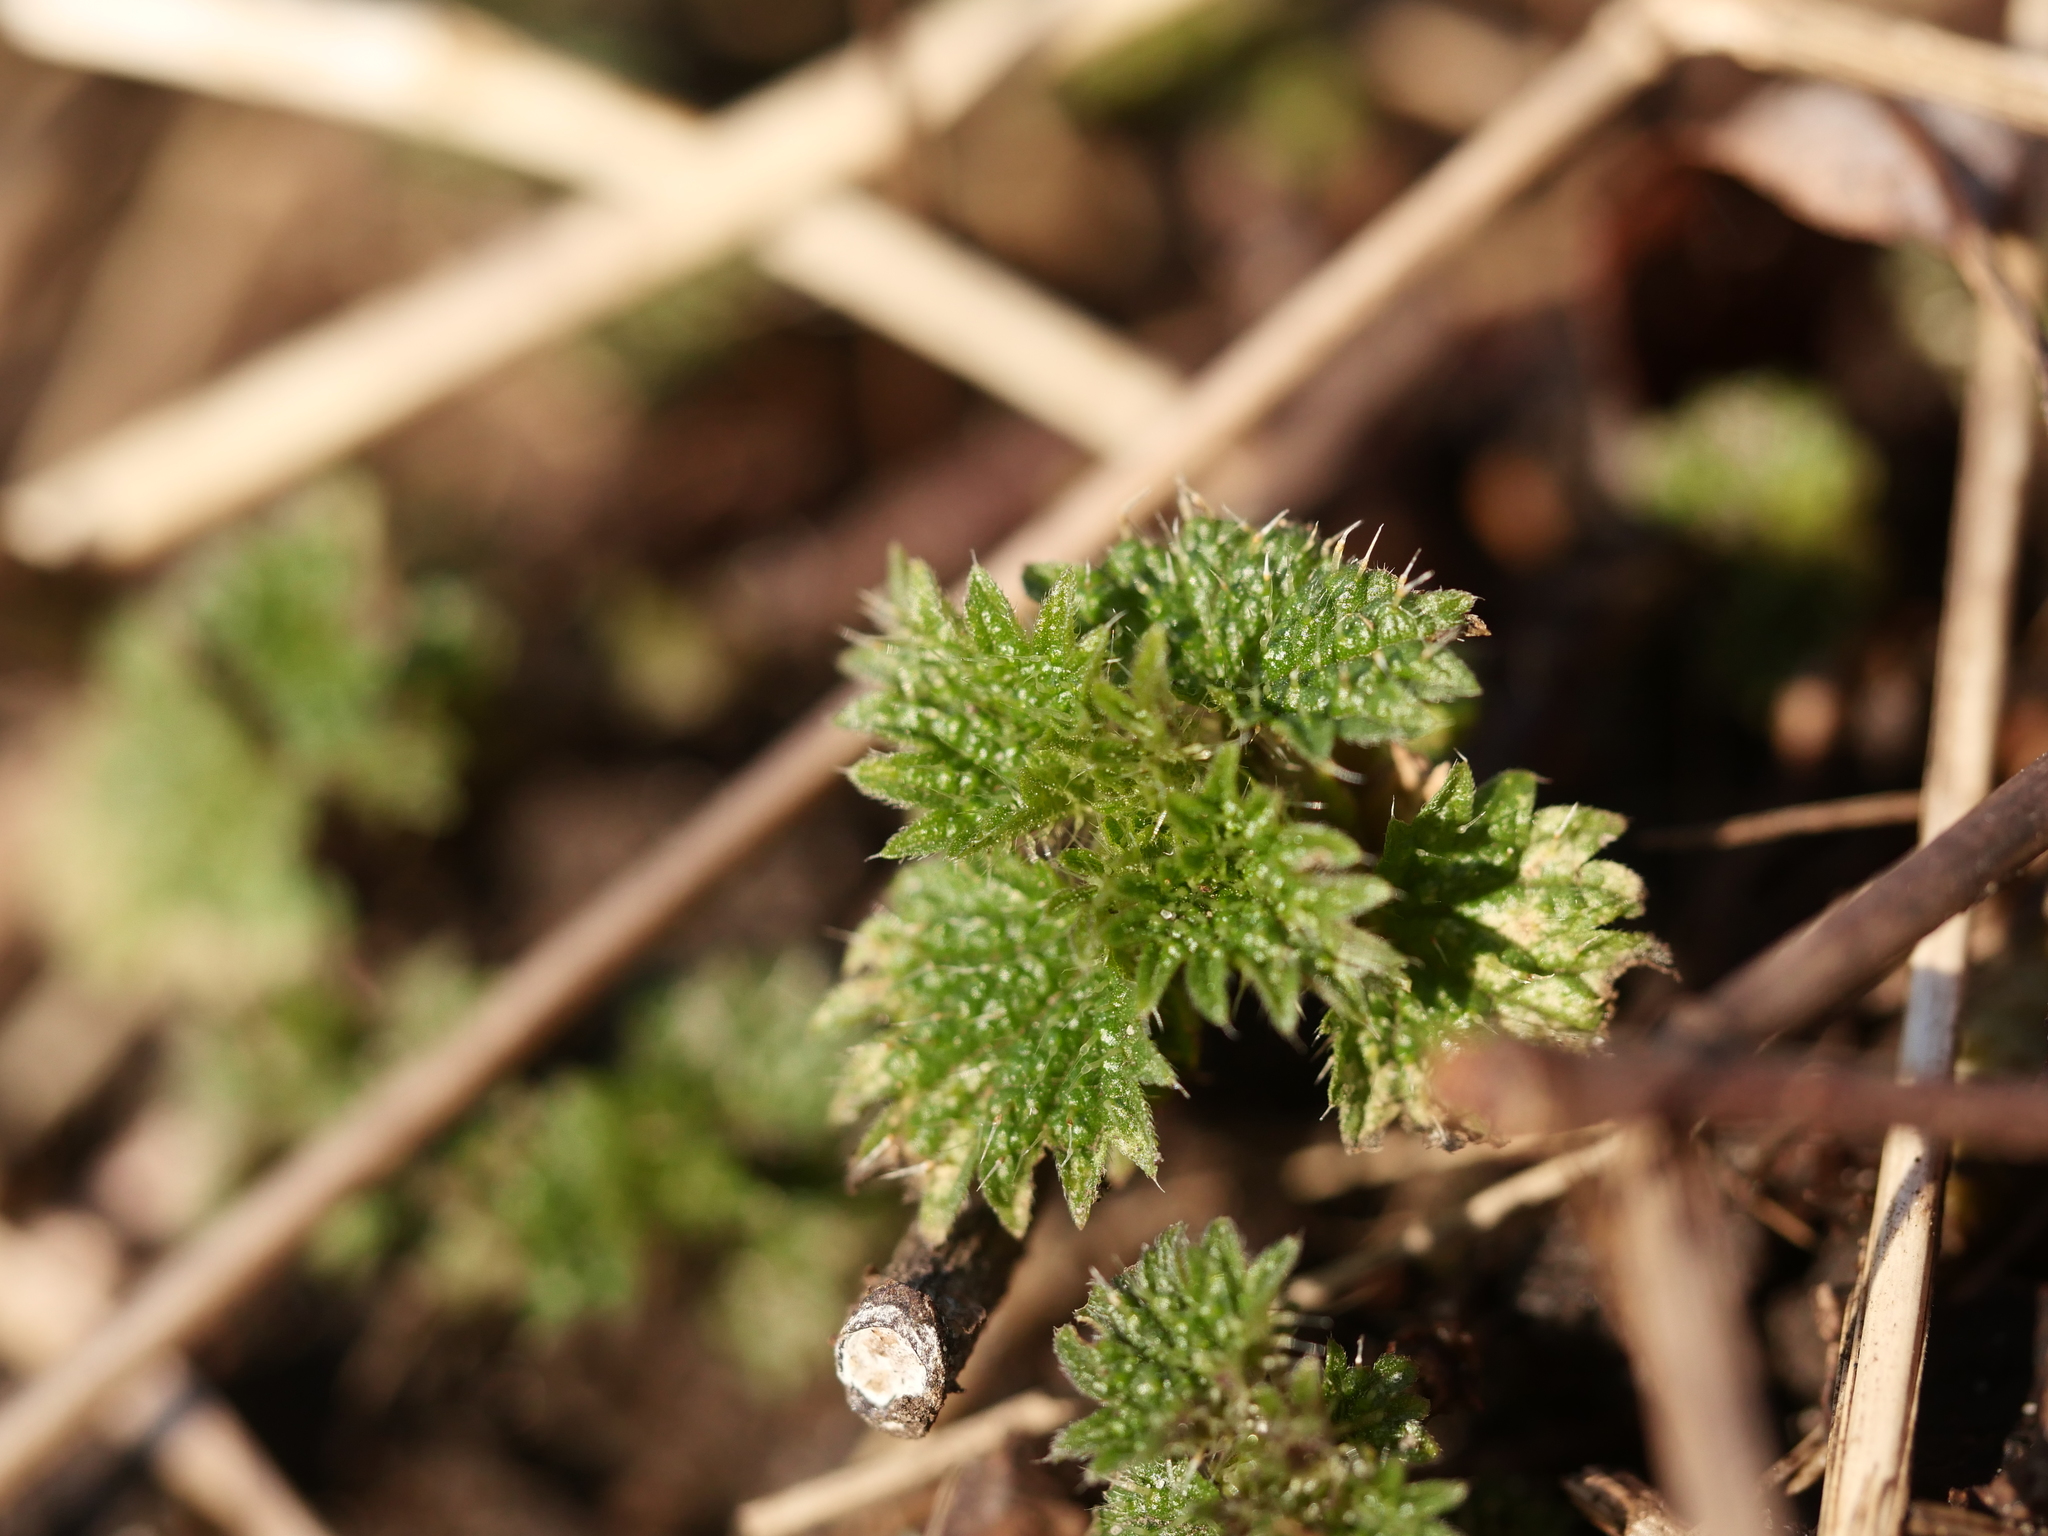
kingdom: Plantae
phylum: Tracheophyta
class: Magnoliopsida
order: Rosales
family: Urticaceae
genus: Urtica
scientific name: Urtica dioica
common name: Common nettle
